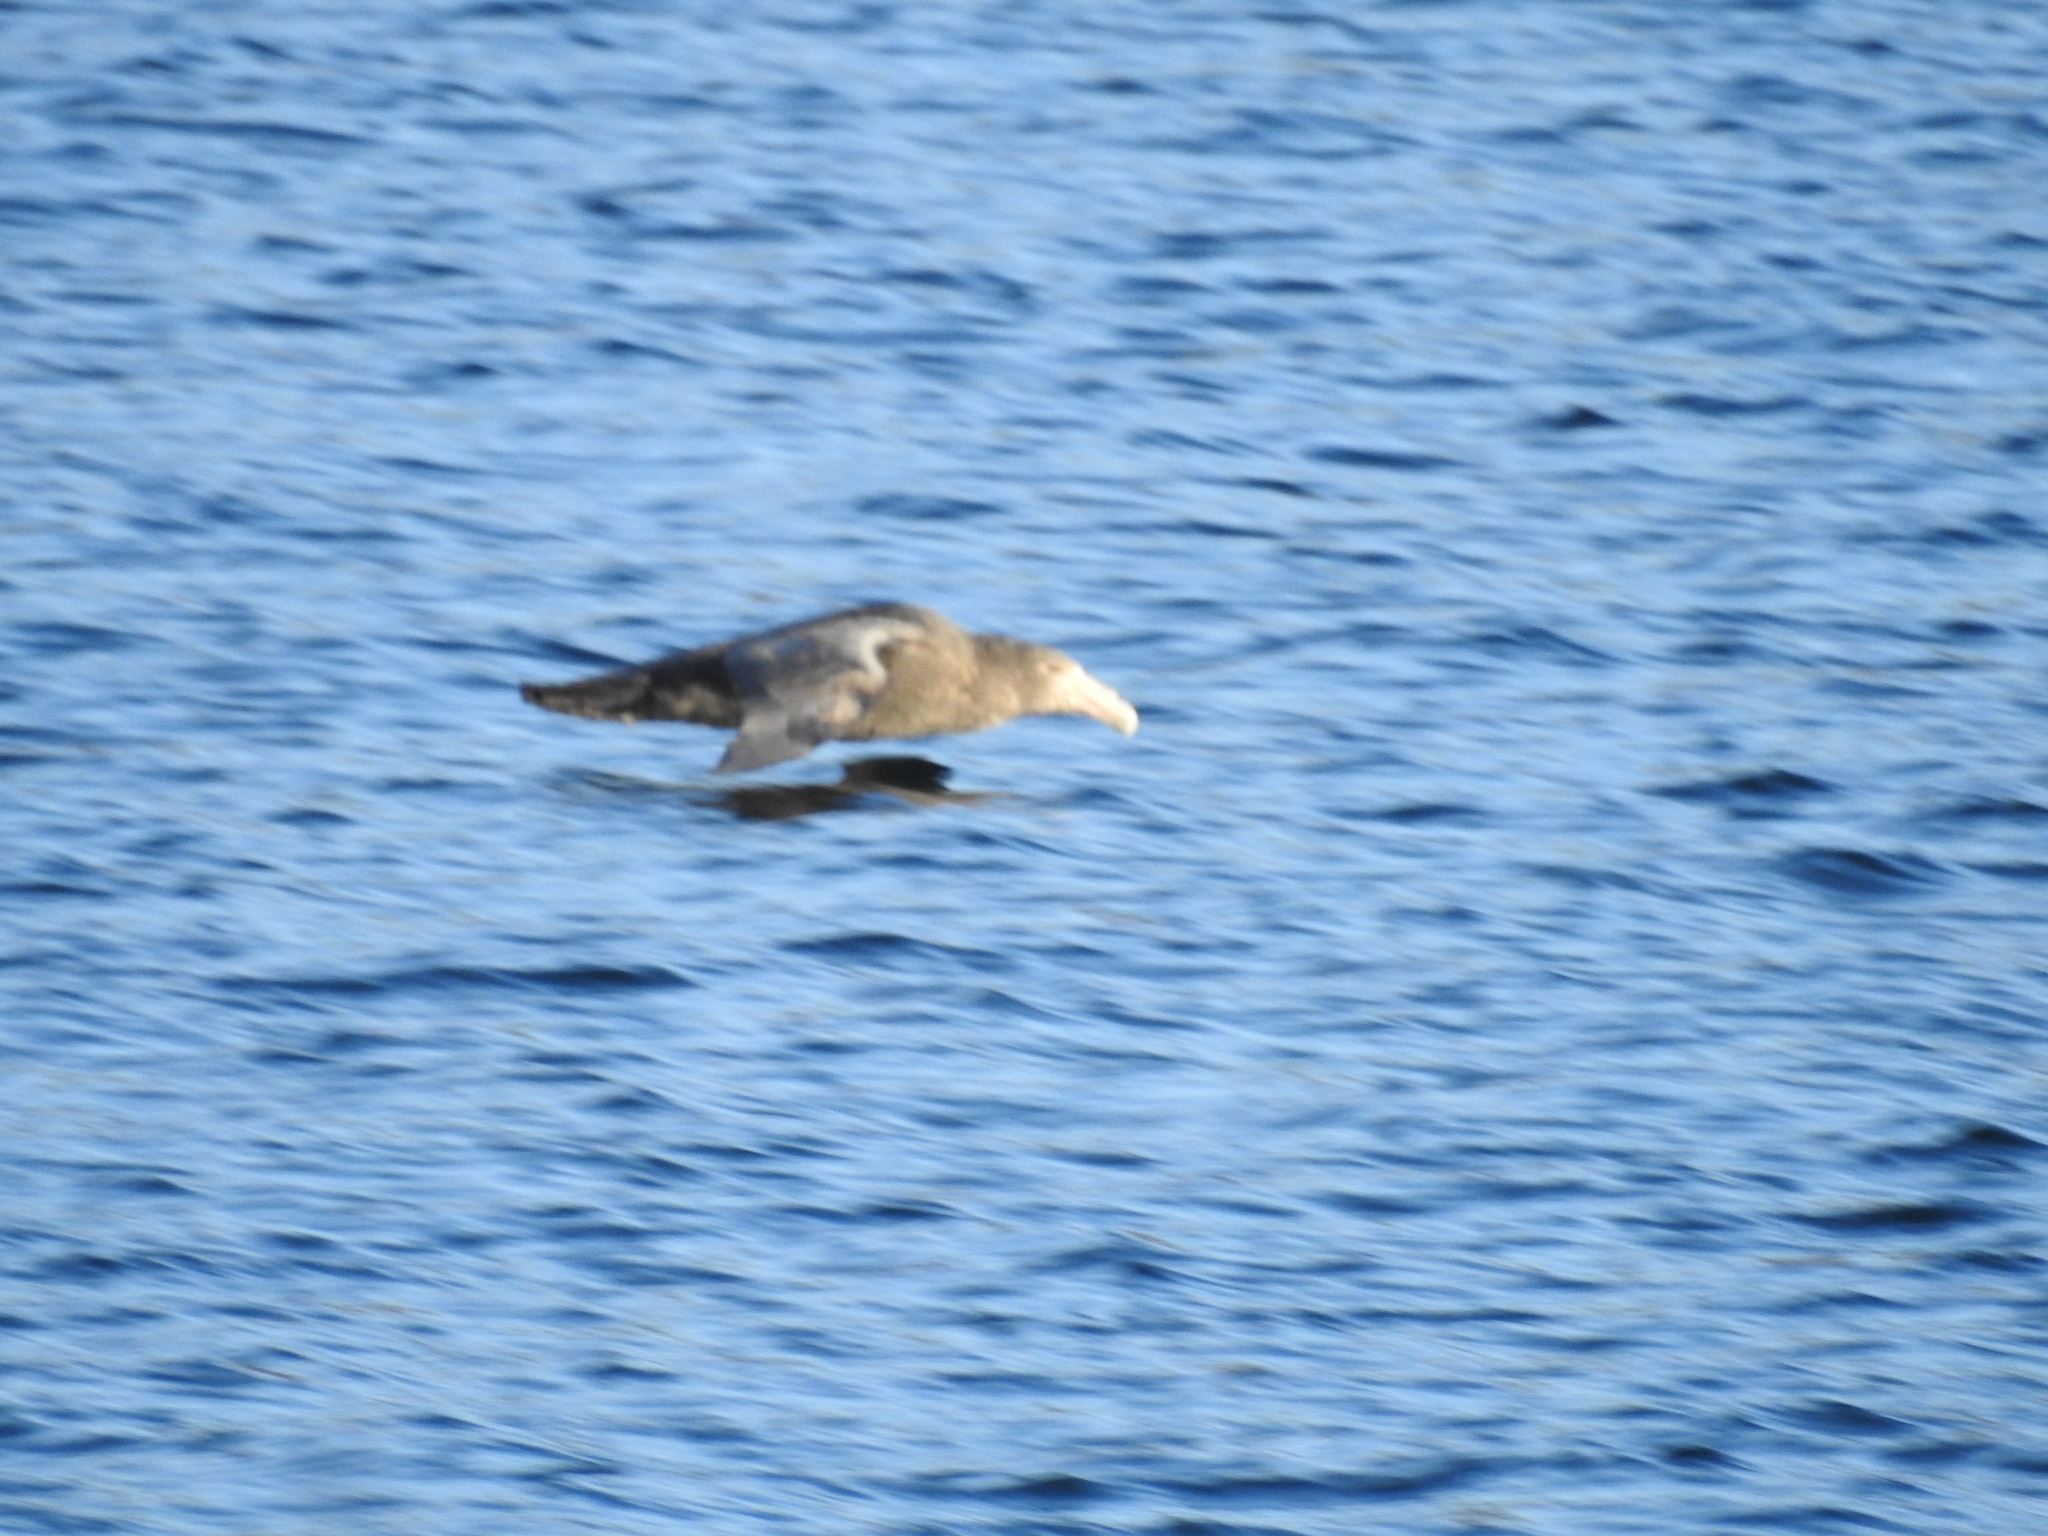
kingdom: Animalia
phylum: Chordata
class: Aves
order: Procellariiformes
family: Procellariidae
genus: Macronectes
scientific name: Macronectes giganteus
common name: Southern giant petrel
